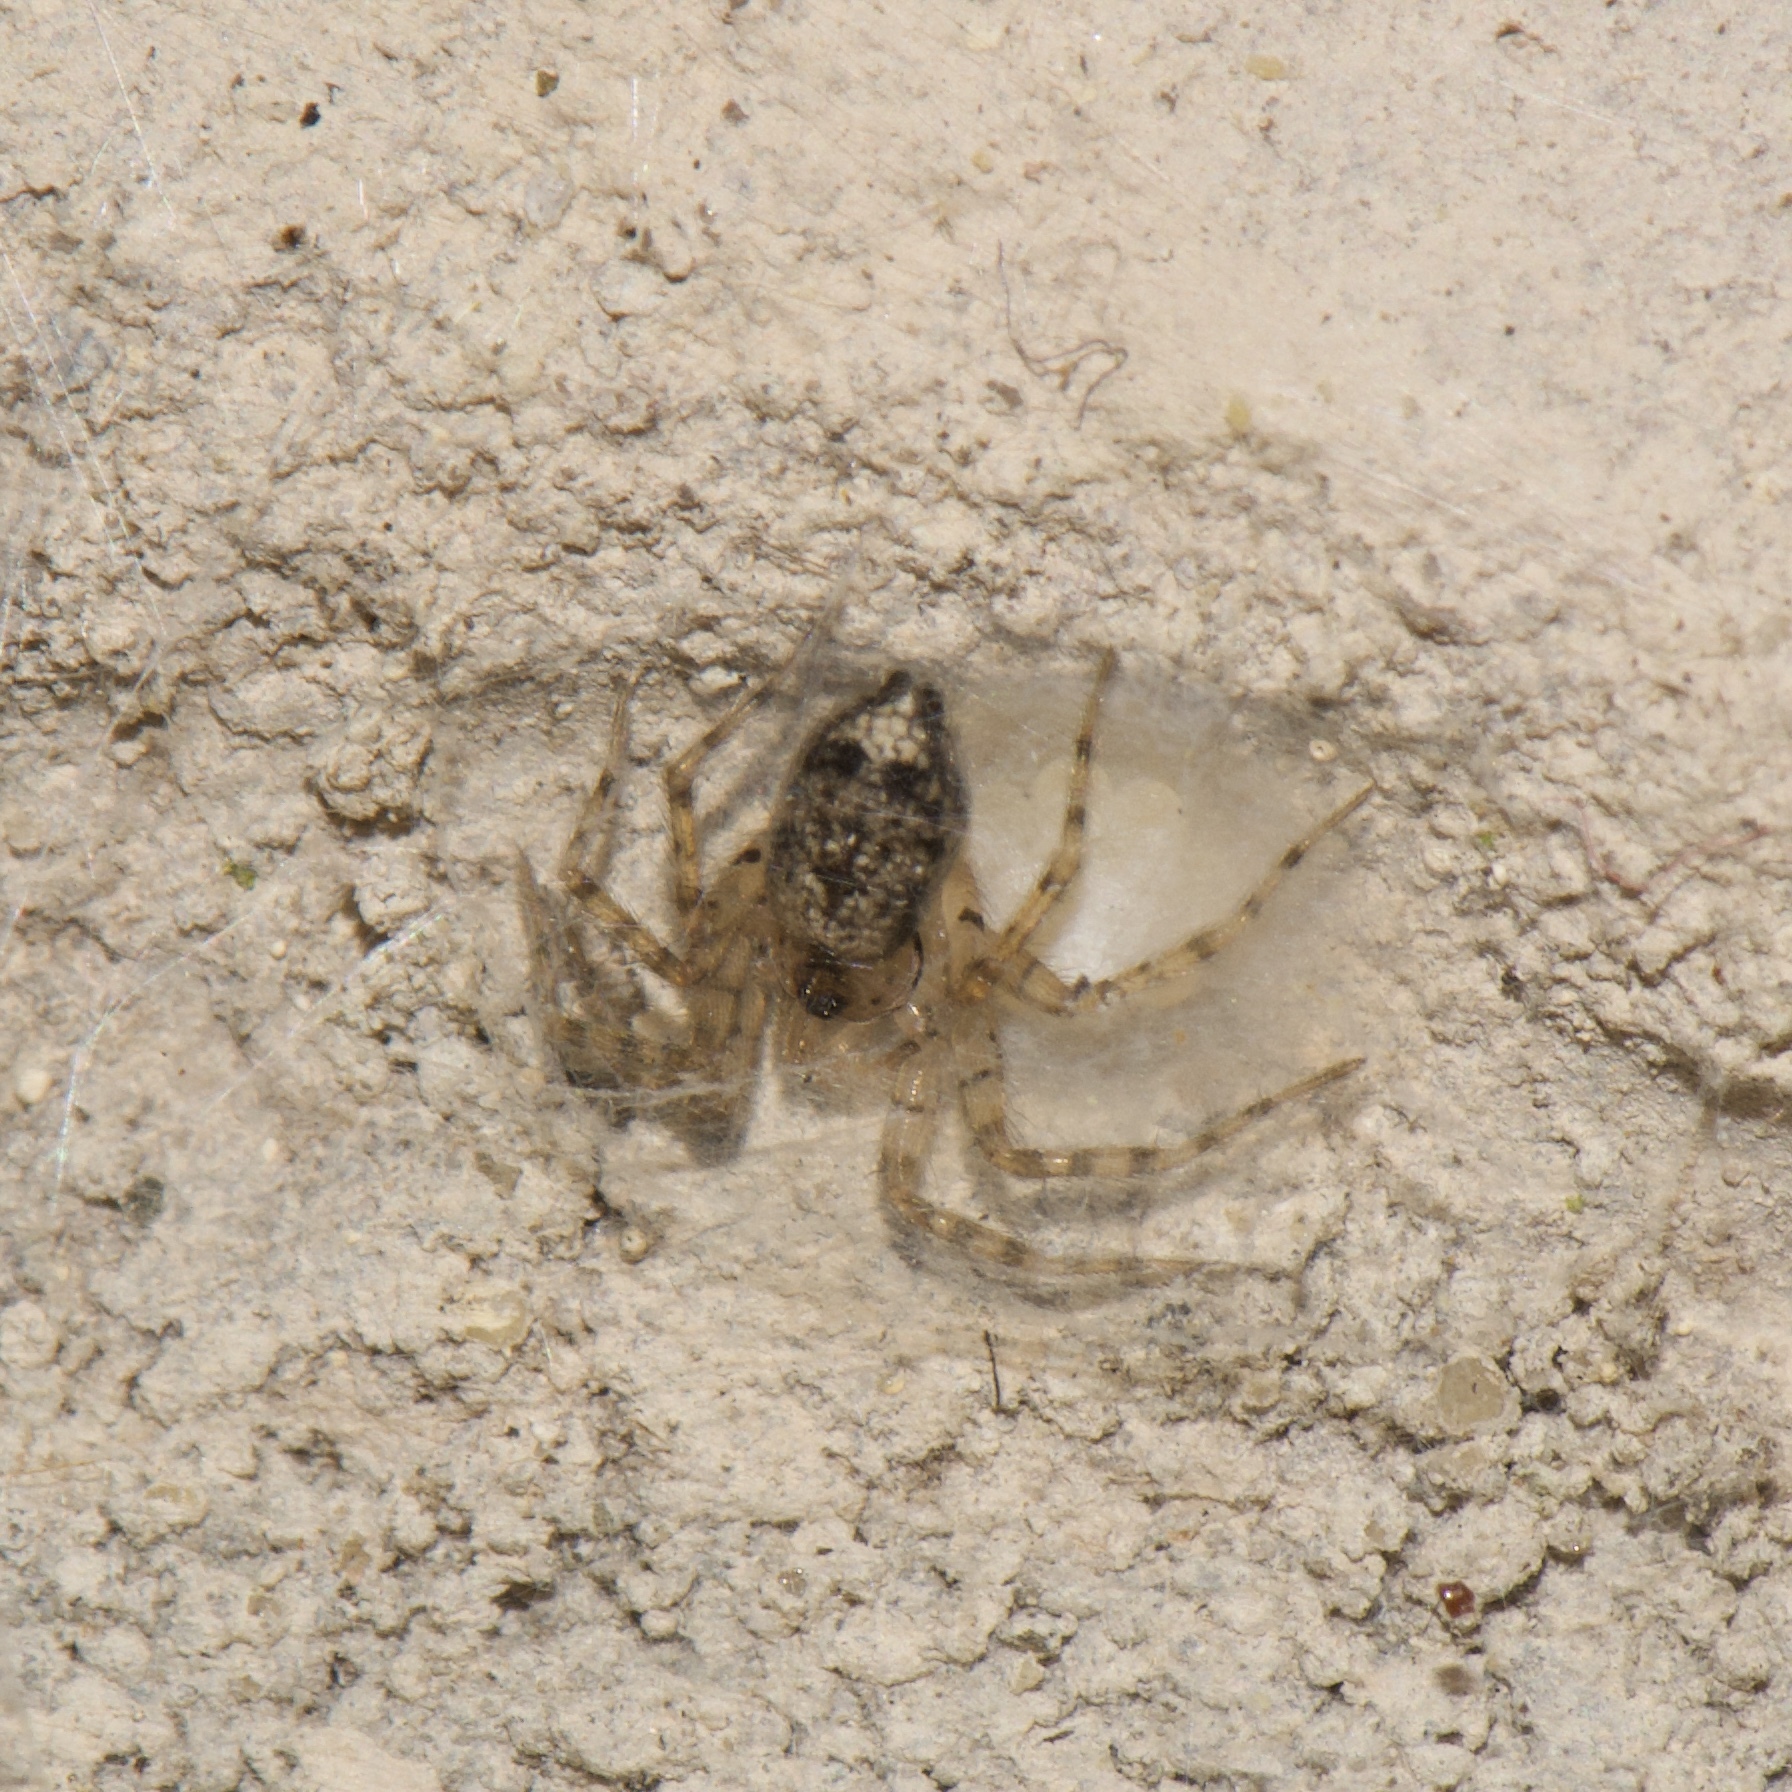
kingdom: Animalia
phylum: Arthropoda
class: Arachnida
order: Araneae
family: Oecobiidae
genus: Oecobius
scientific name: Oecobius navus
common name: Flatmesh weaver
